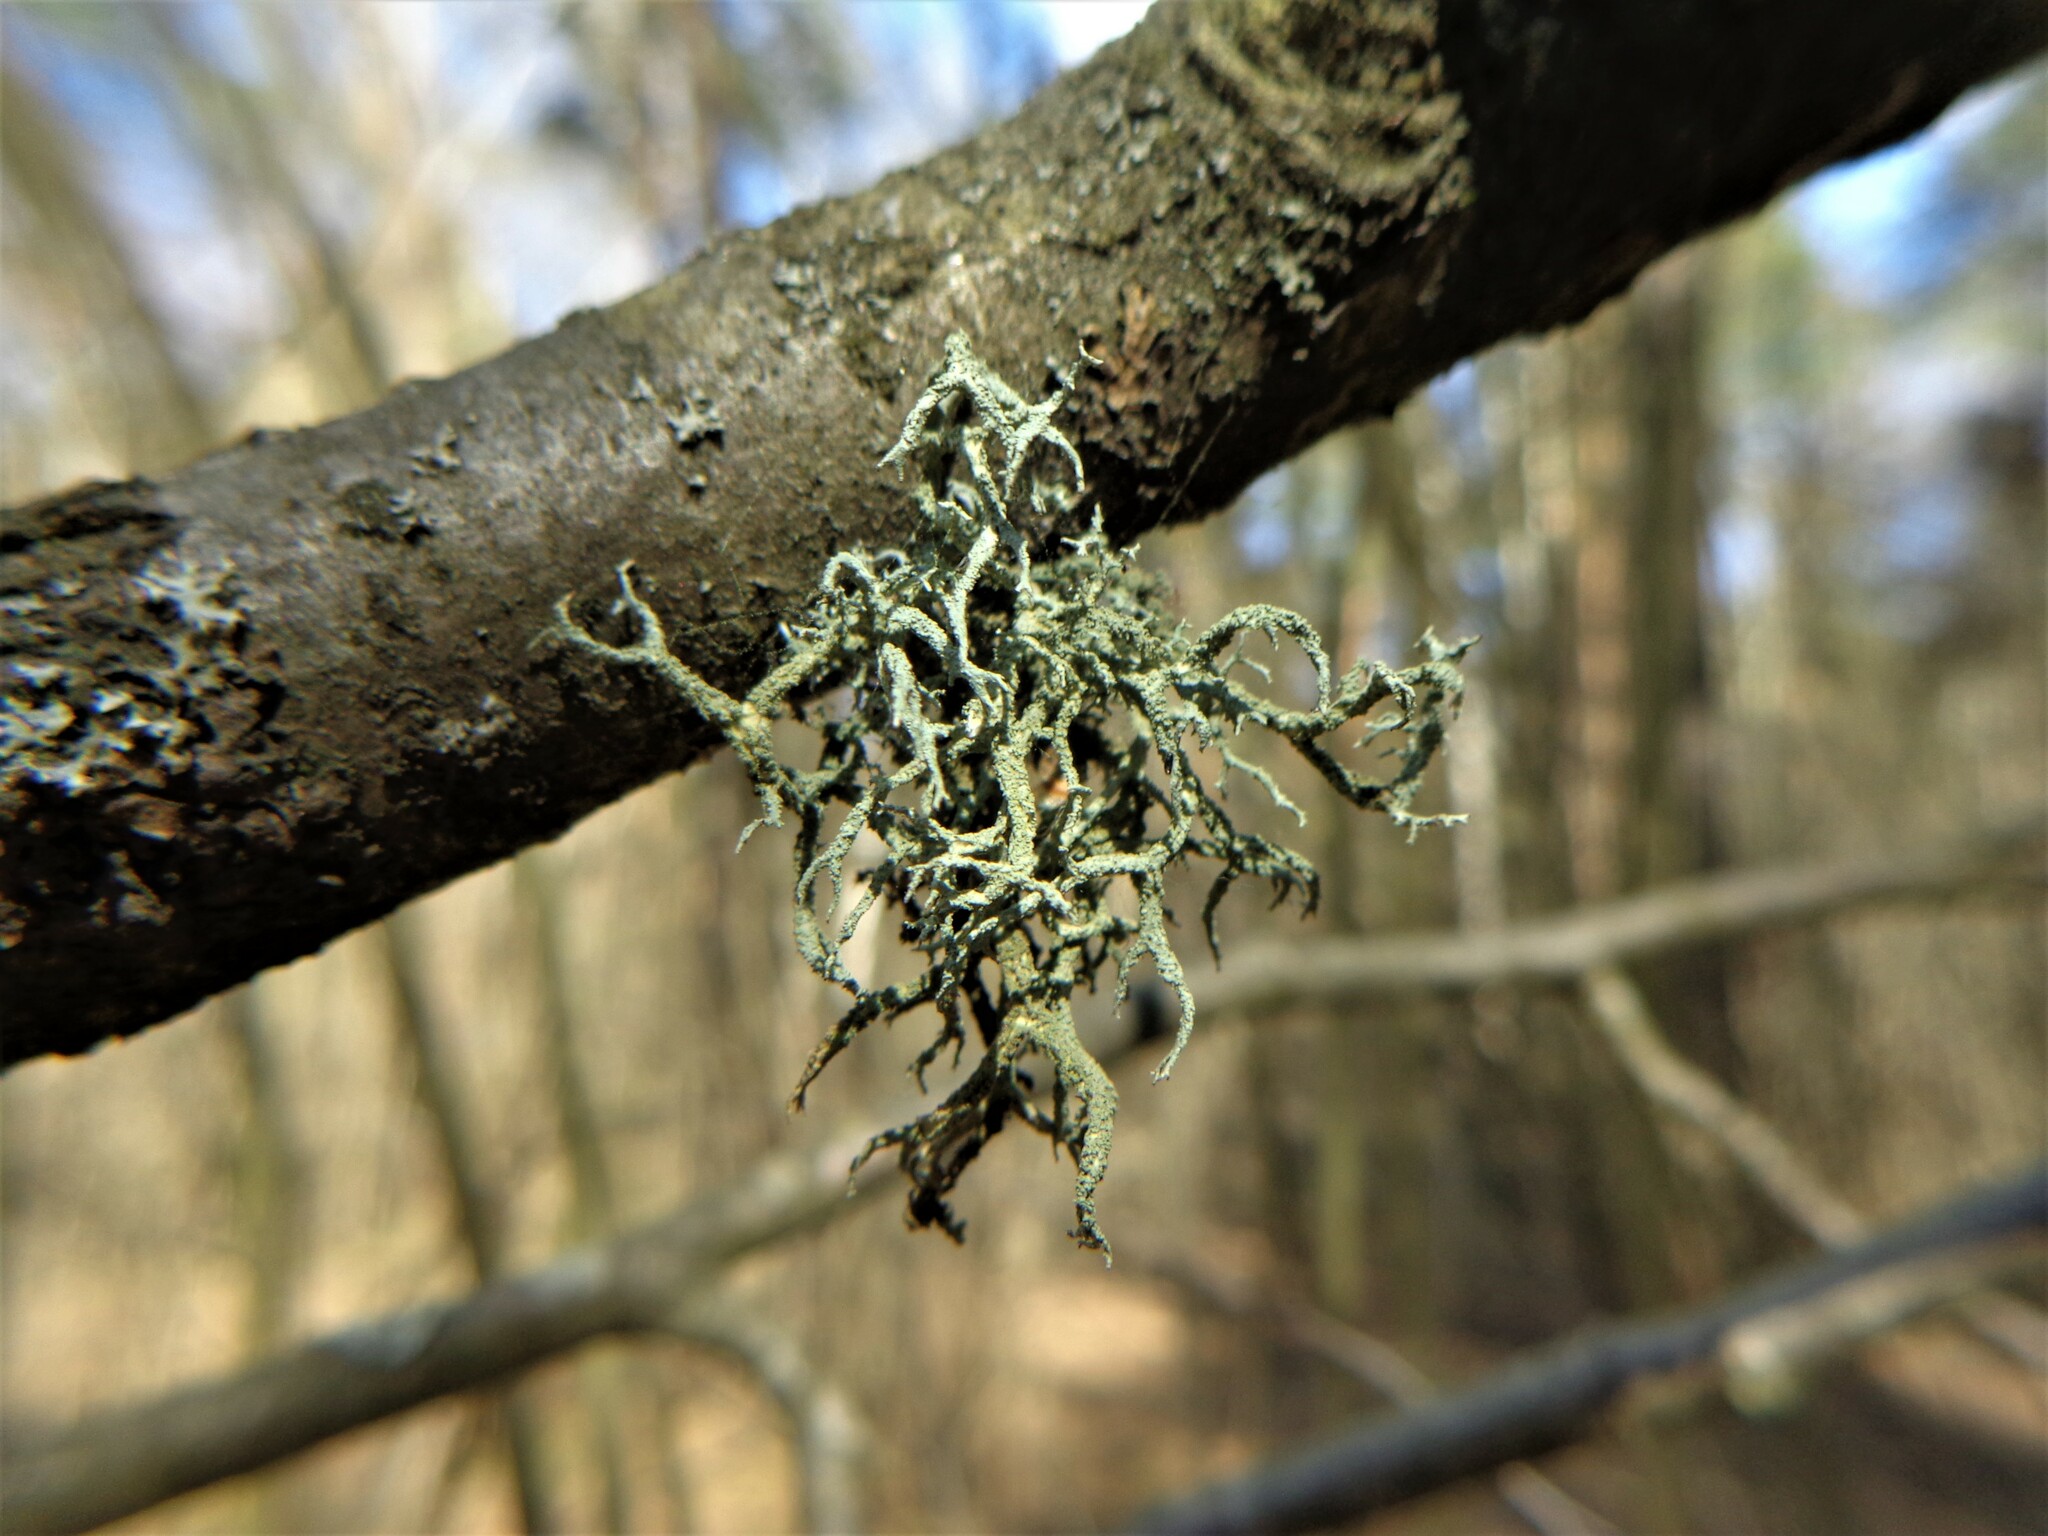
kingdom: Fungi
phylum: Ascomycota
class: Lecanoromycetes
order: Lecanorales
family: Parmeliaceae
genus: Evernia
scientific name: Evernia mesomorpha
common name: Boreal oak moss lichen
